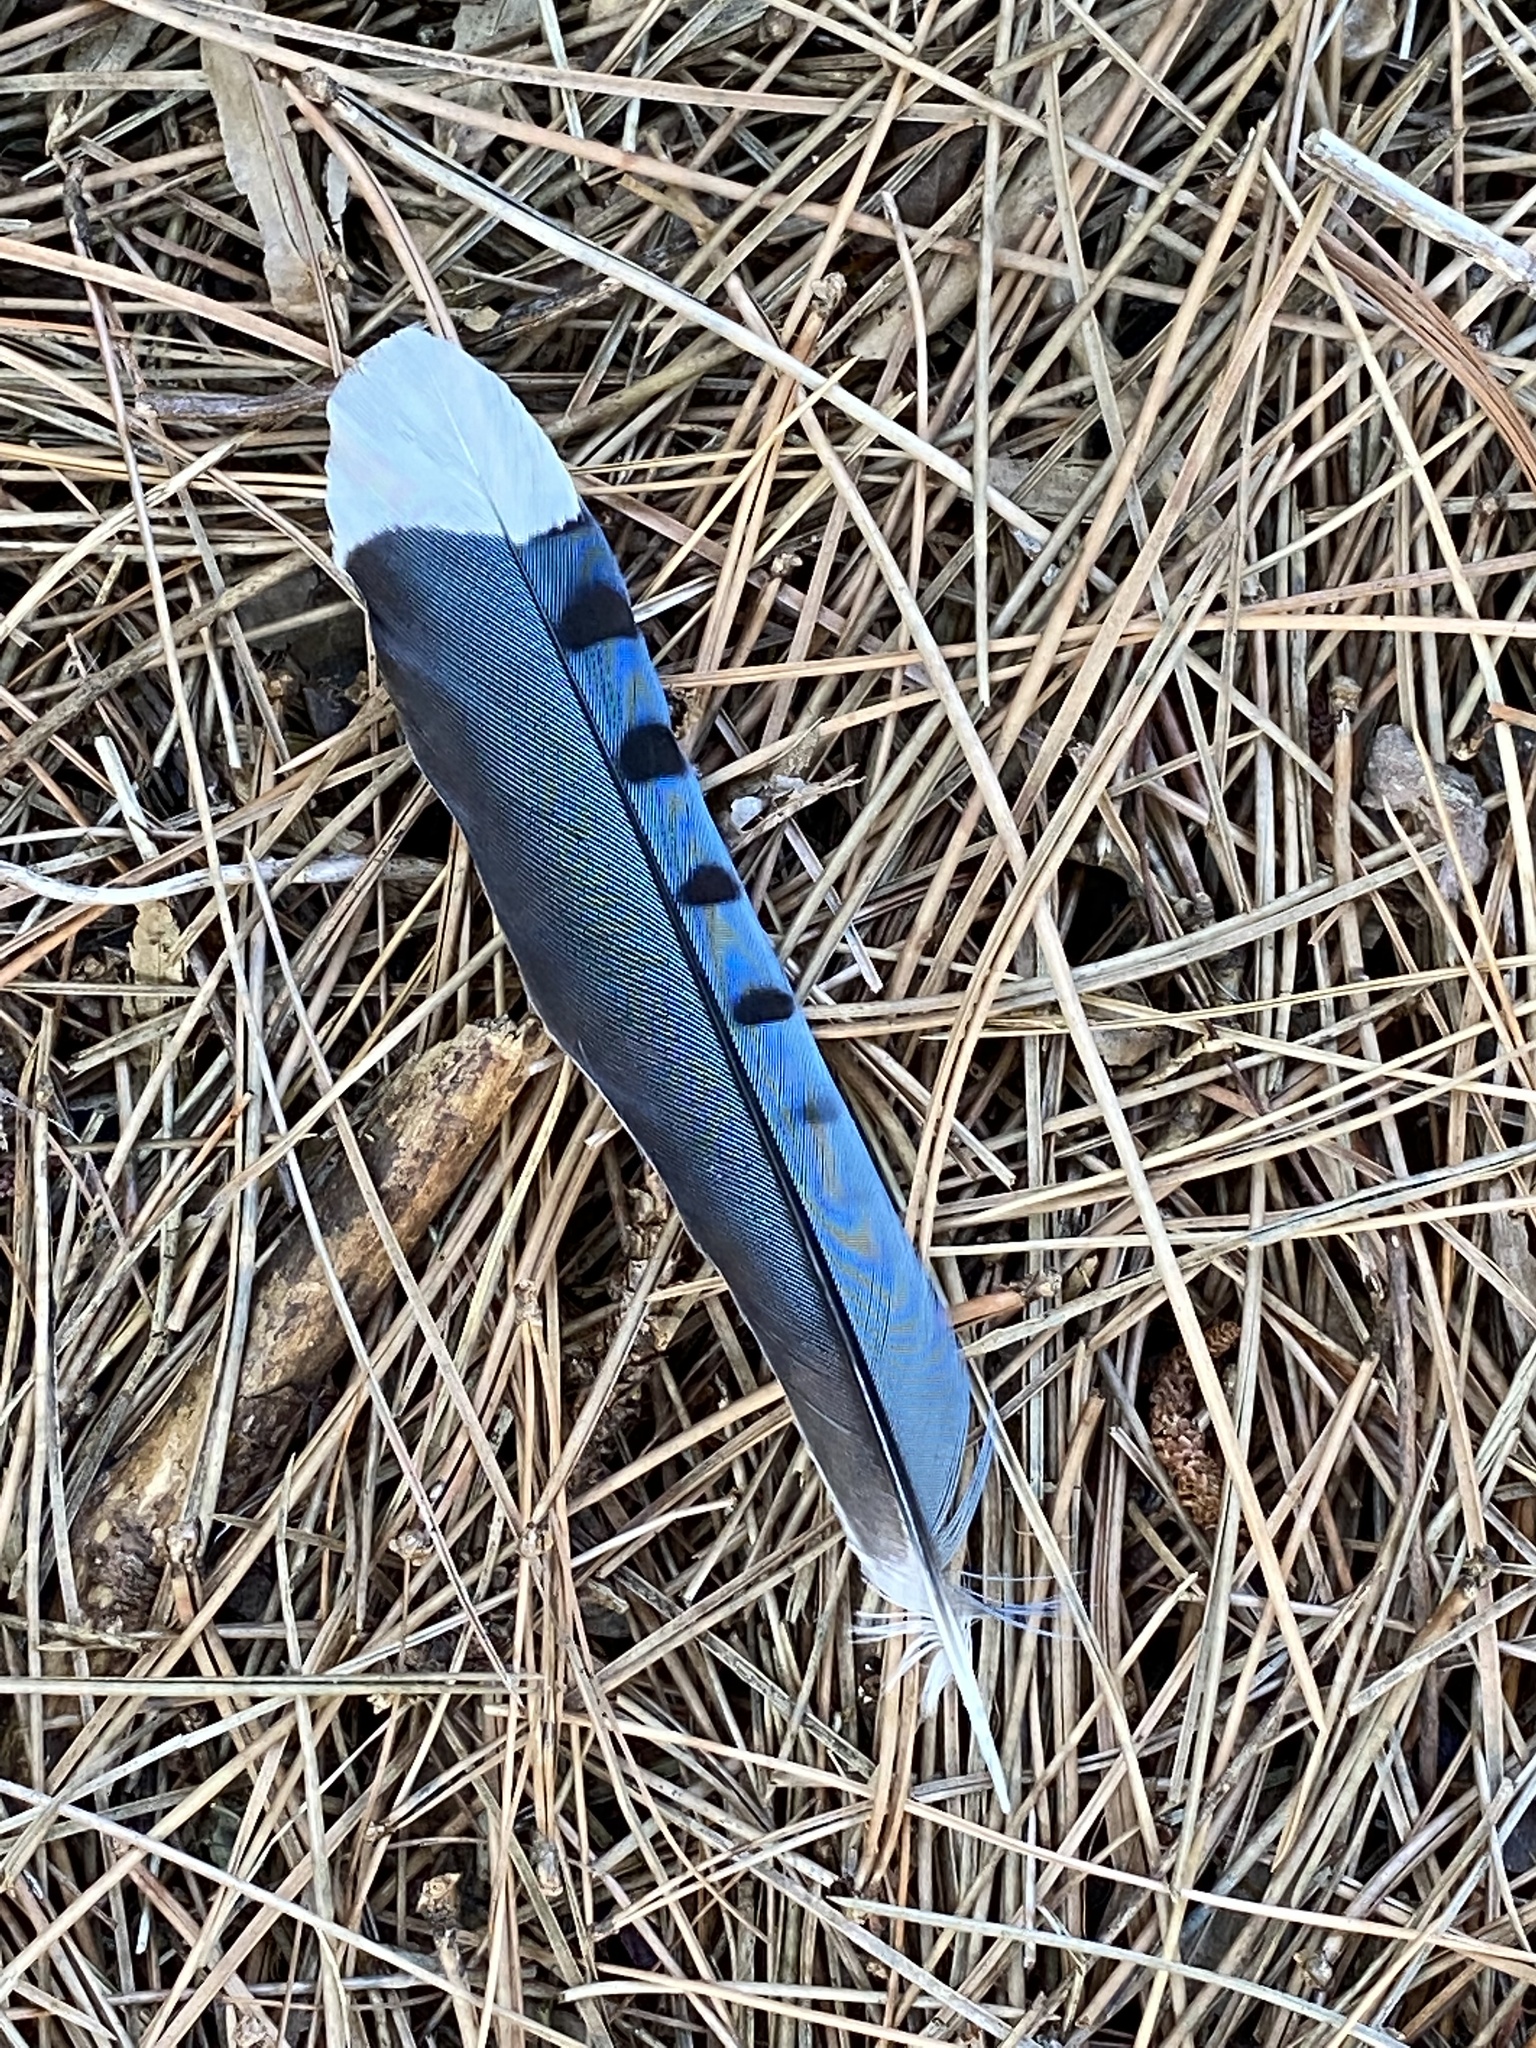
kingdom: Animalia
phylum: Chordata
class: Aves
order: Passeriformes
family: Corvidae
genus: Cyanocitta
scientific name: Cyanocitta cristata
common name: Blue jay
